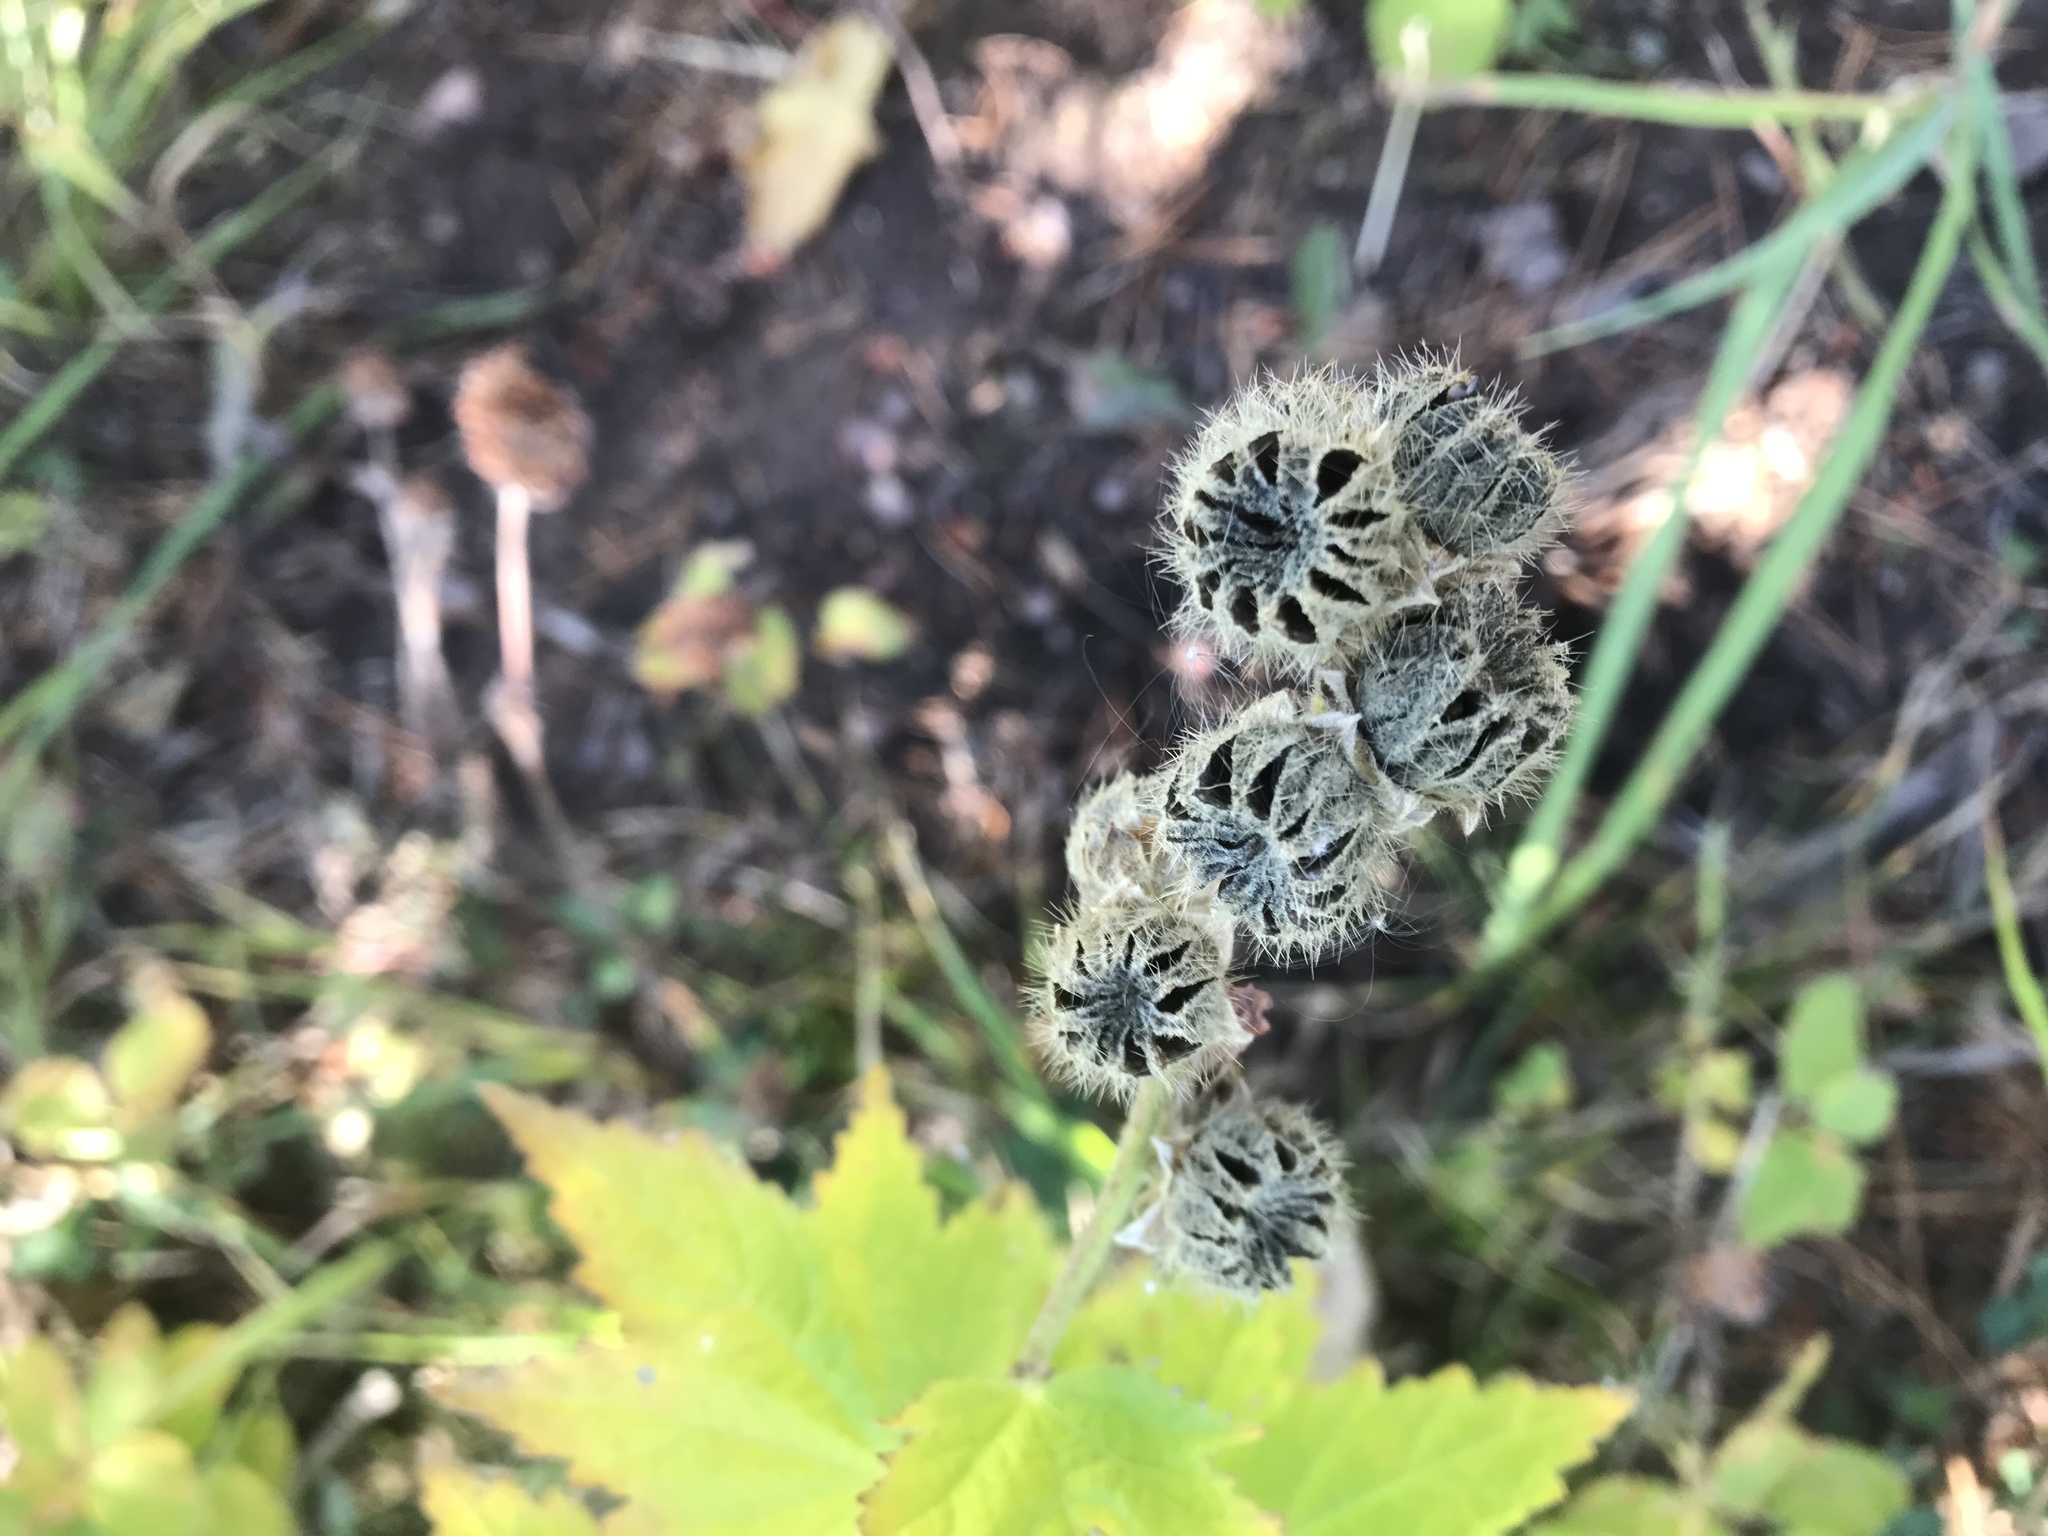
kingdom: Plantae
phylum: Tracheophyta
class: Magnoliopsida
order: Malvales
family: Malvaceae
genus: Iliamna
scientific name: Iliamna rivularis
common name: Wild hollyhock
